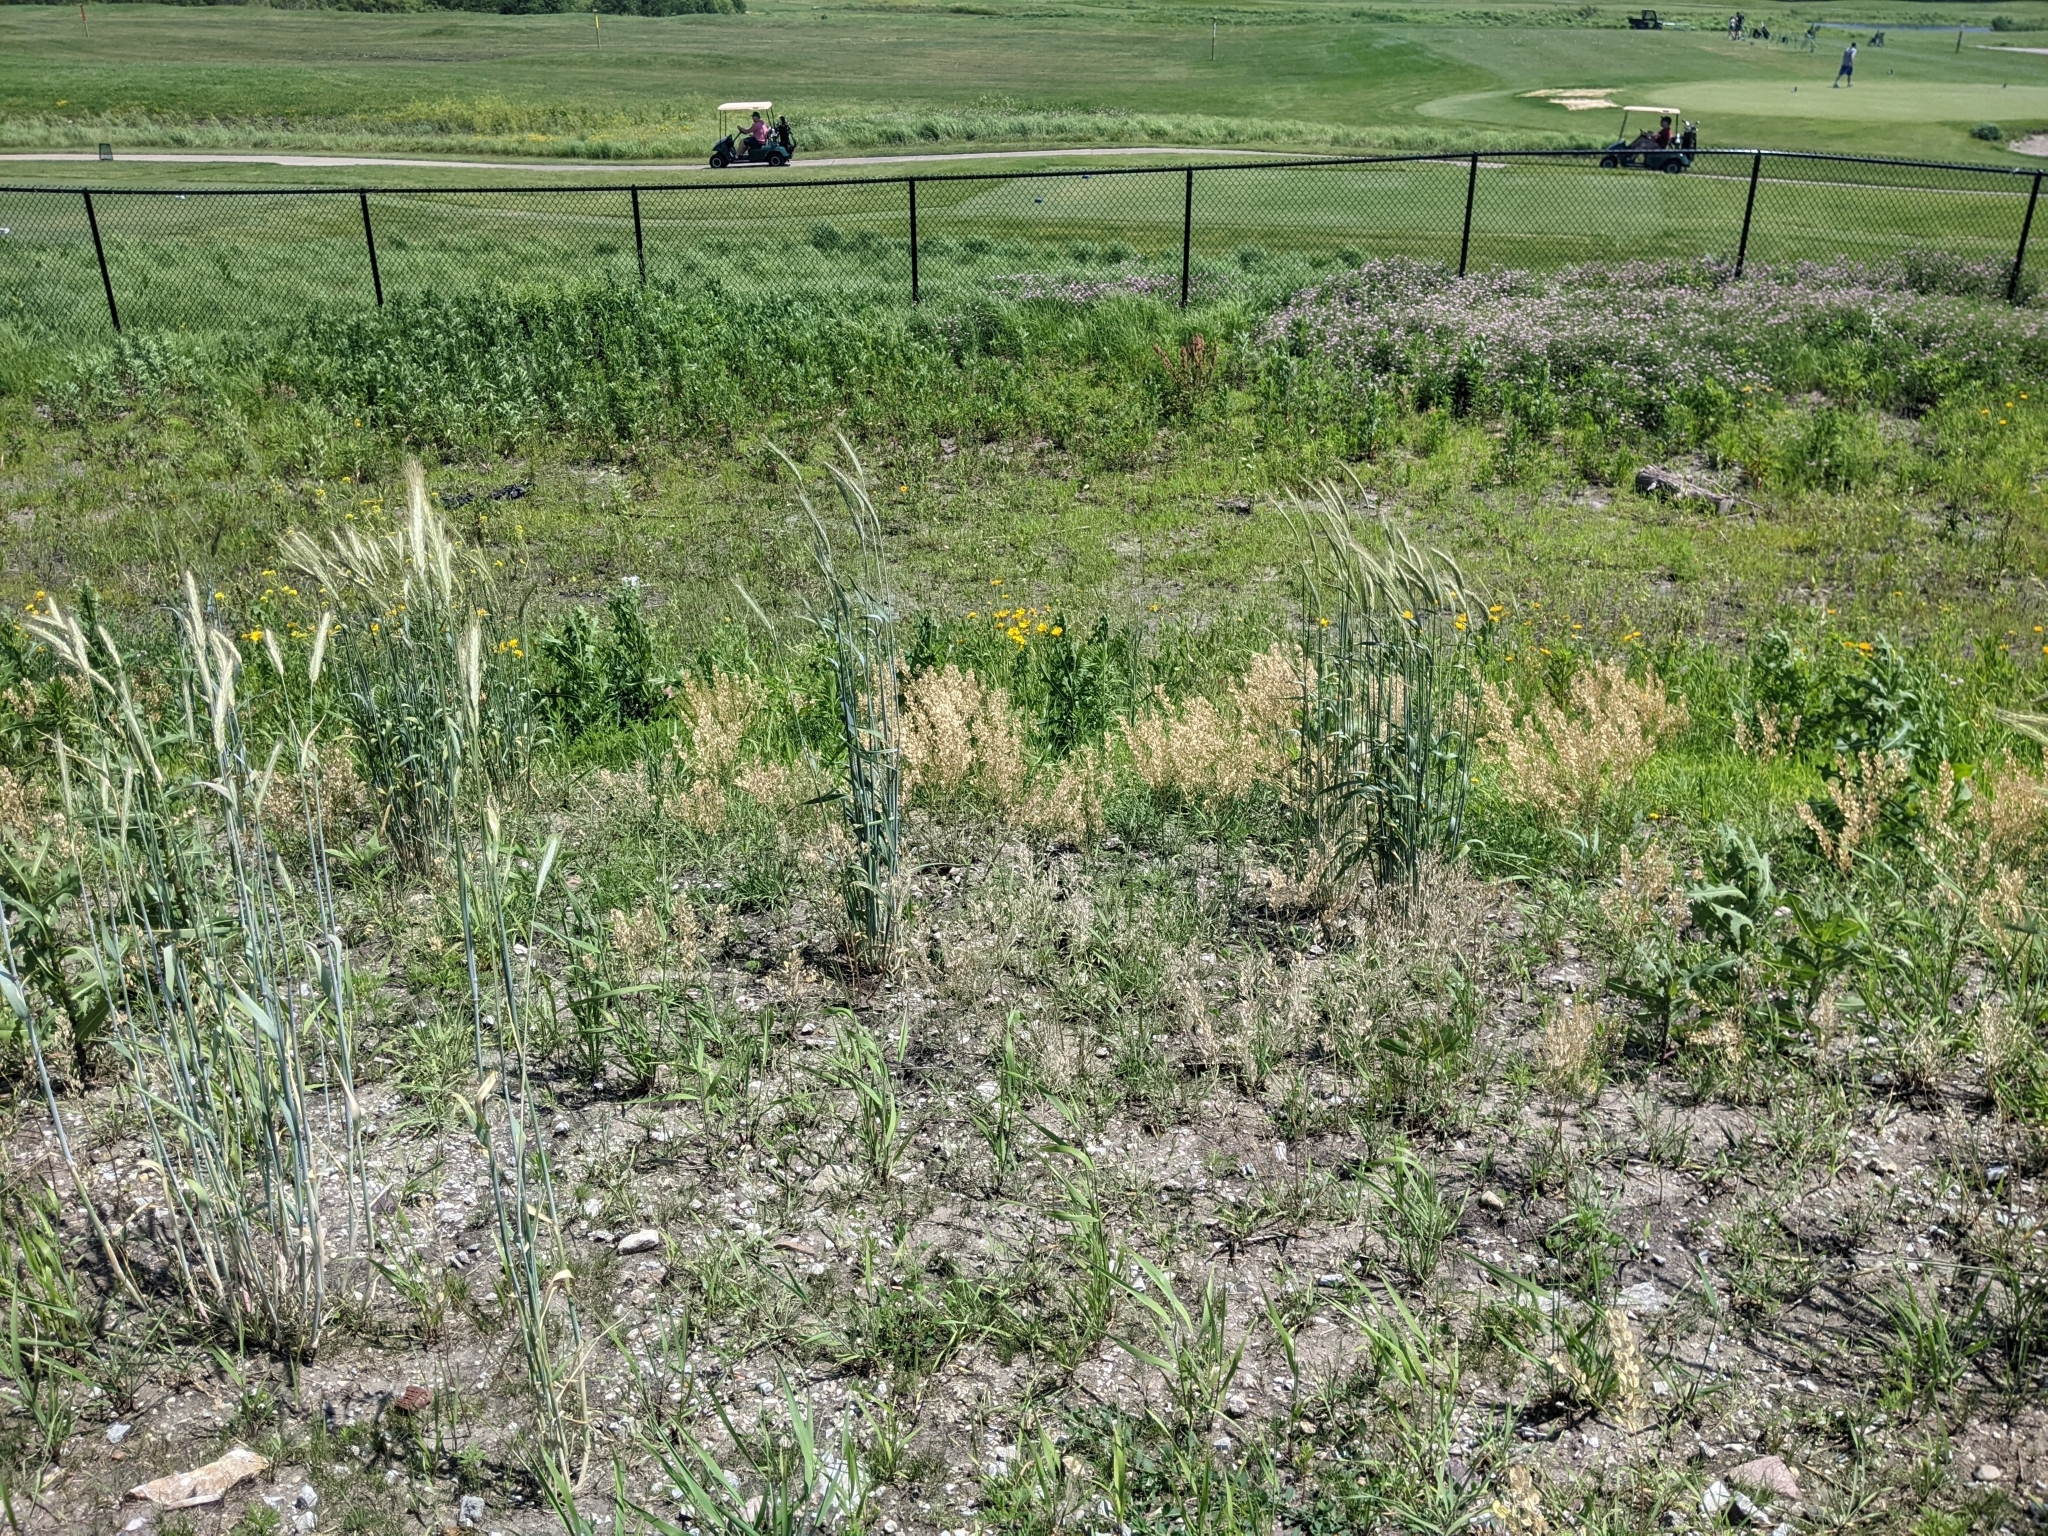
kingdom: Plantae
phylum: Tracheophyta
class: Magnoliopsida
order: Brassicales
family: Brassicaceae
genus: Thlaspi
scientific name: Thlaspi arvense
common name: Field pennycress
